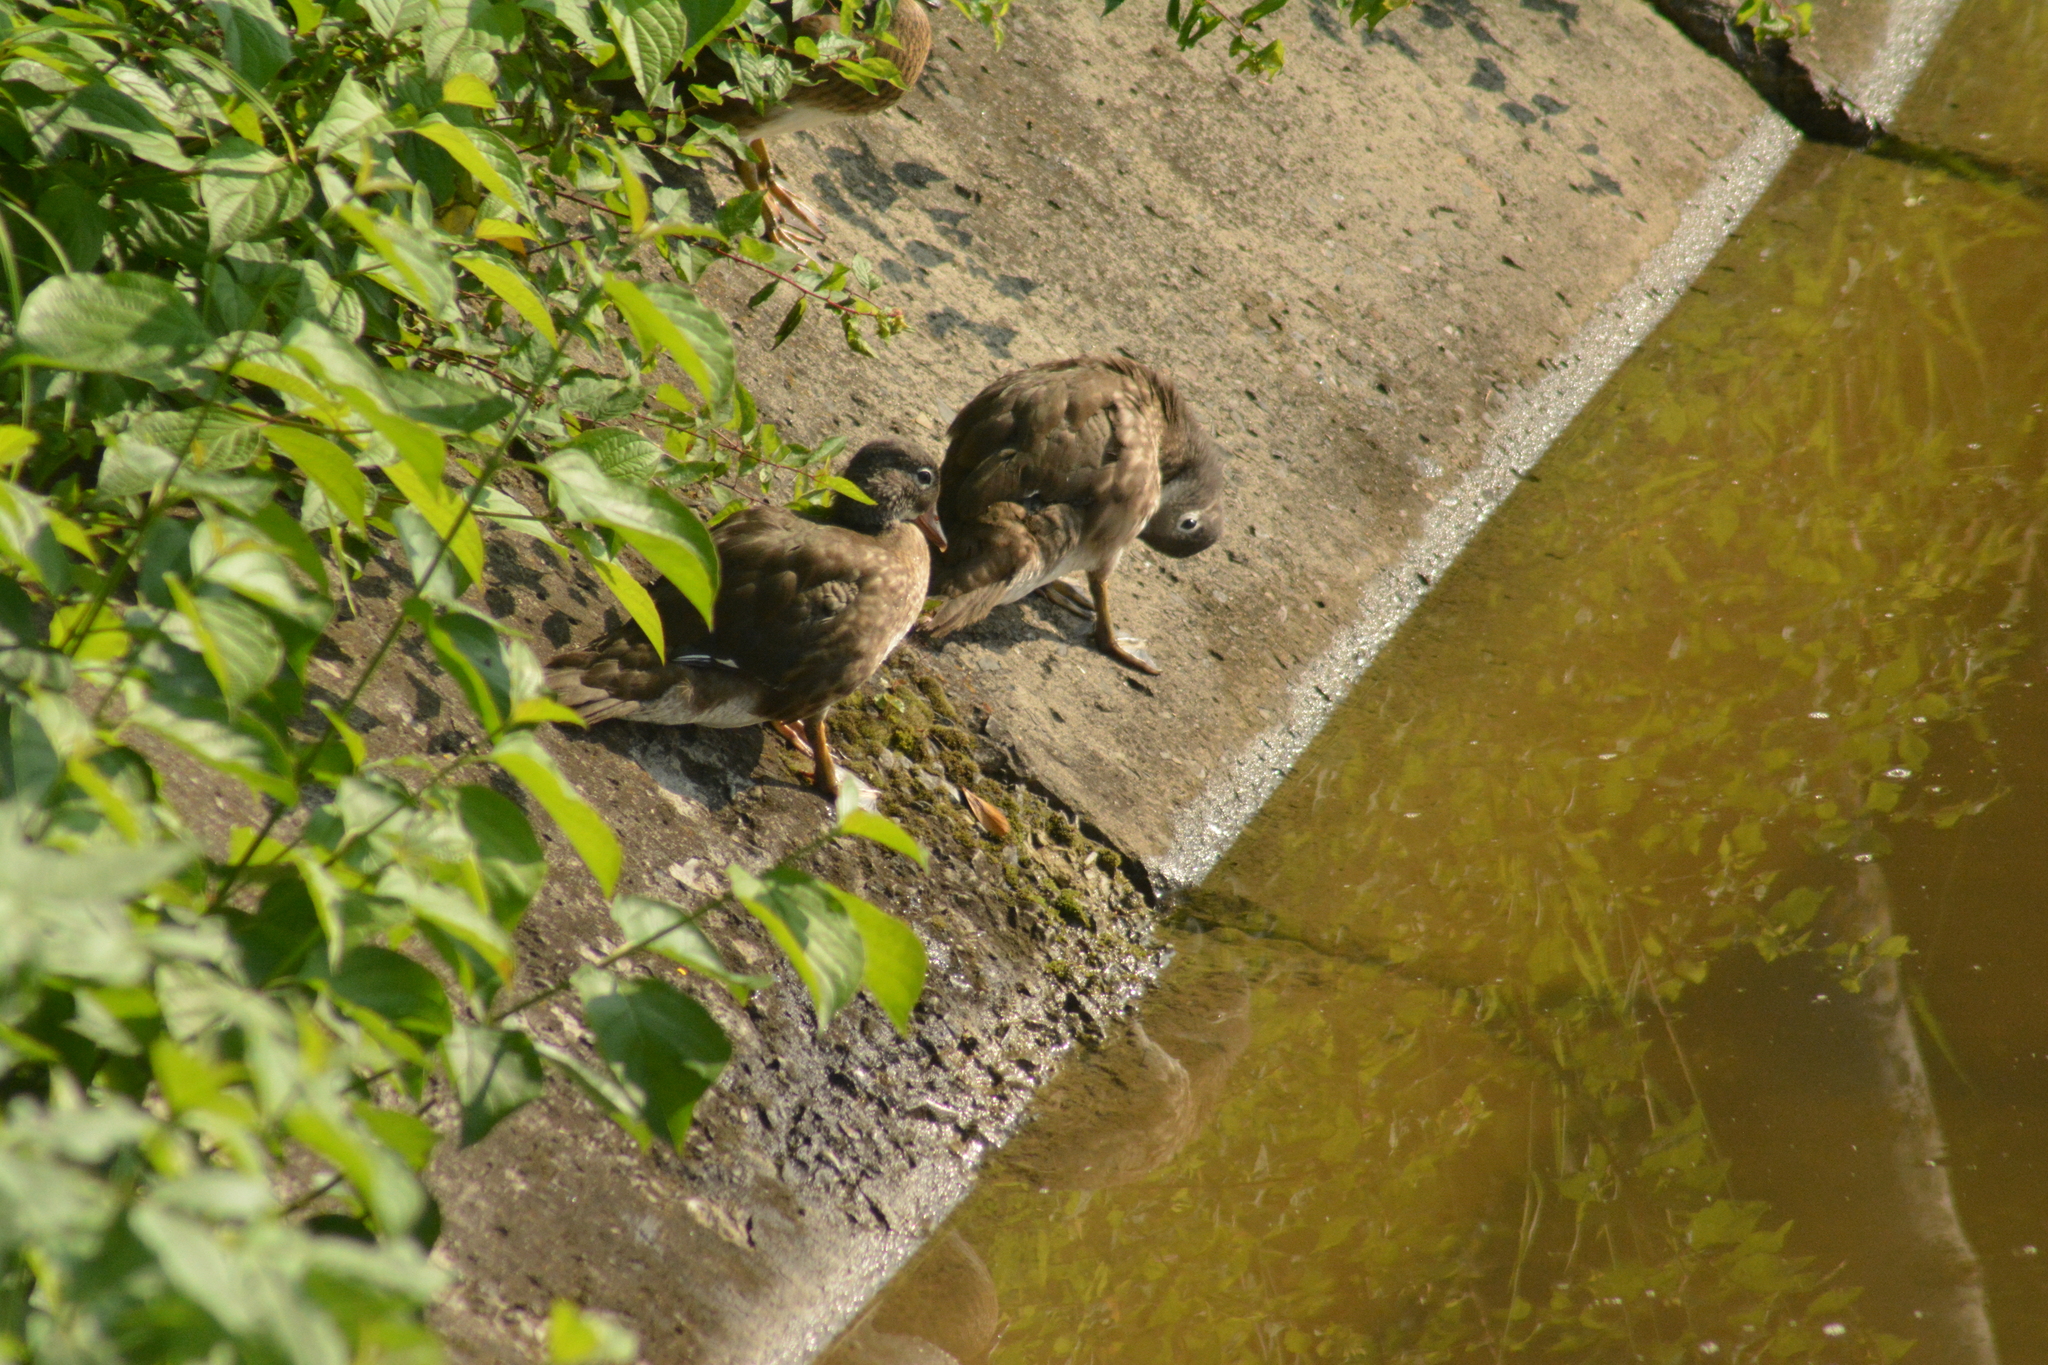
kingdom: Animalia
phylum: Chordata
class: Aves
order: Anseriformes
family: Anatidae
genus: Aix
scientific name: Aix galericulata
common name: Mandarin duck
